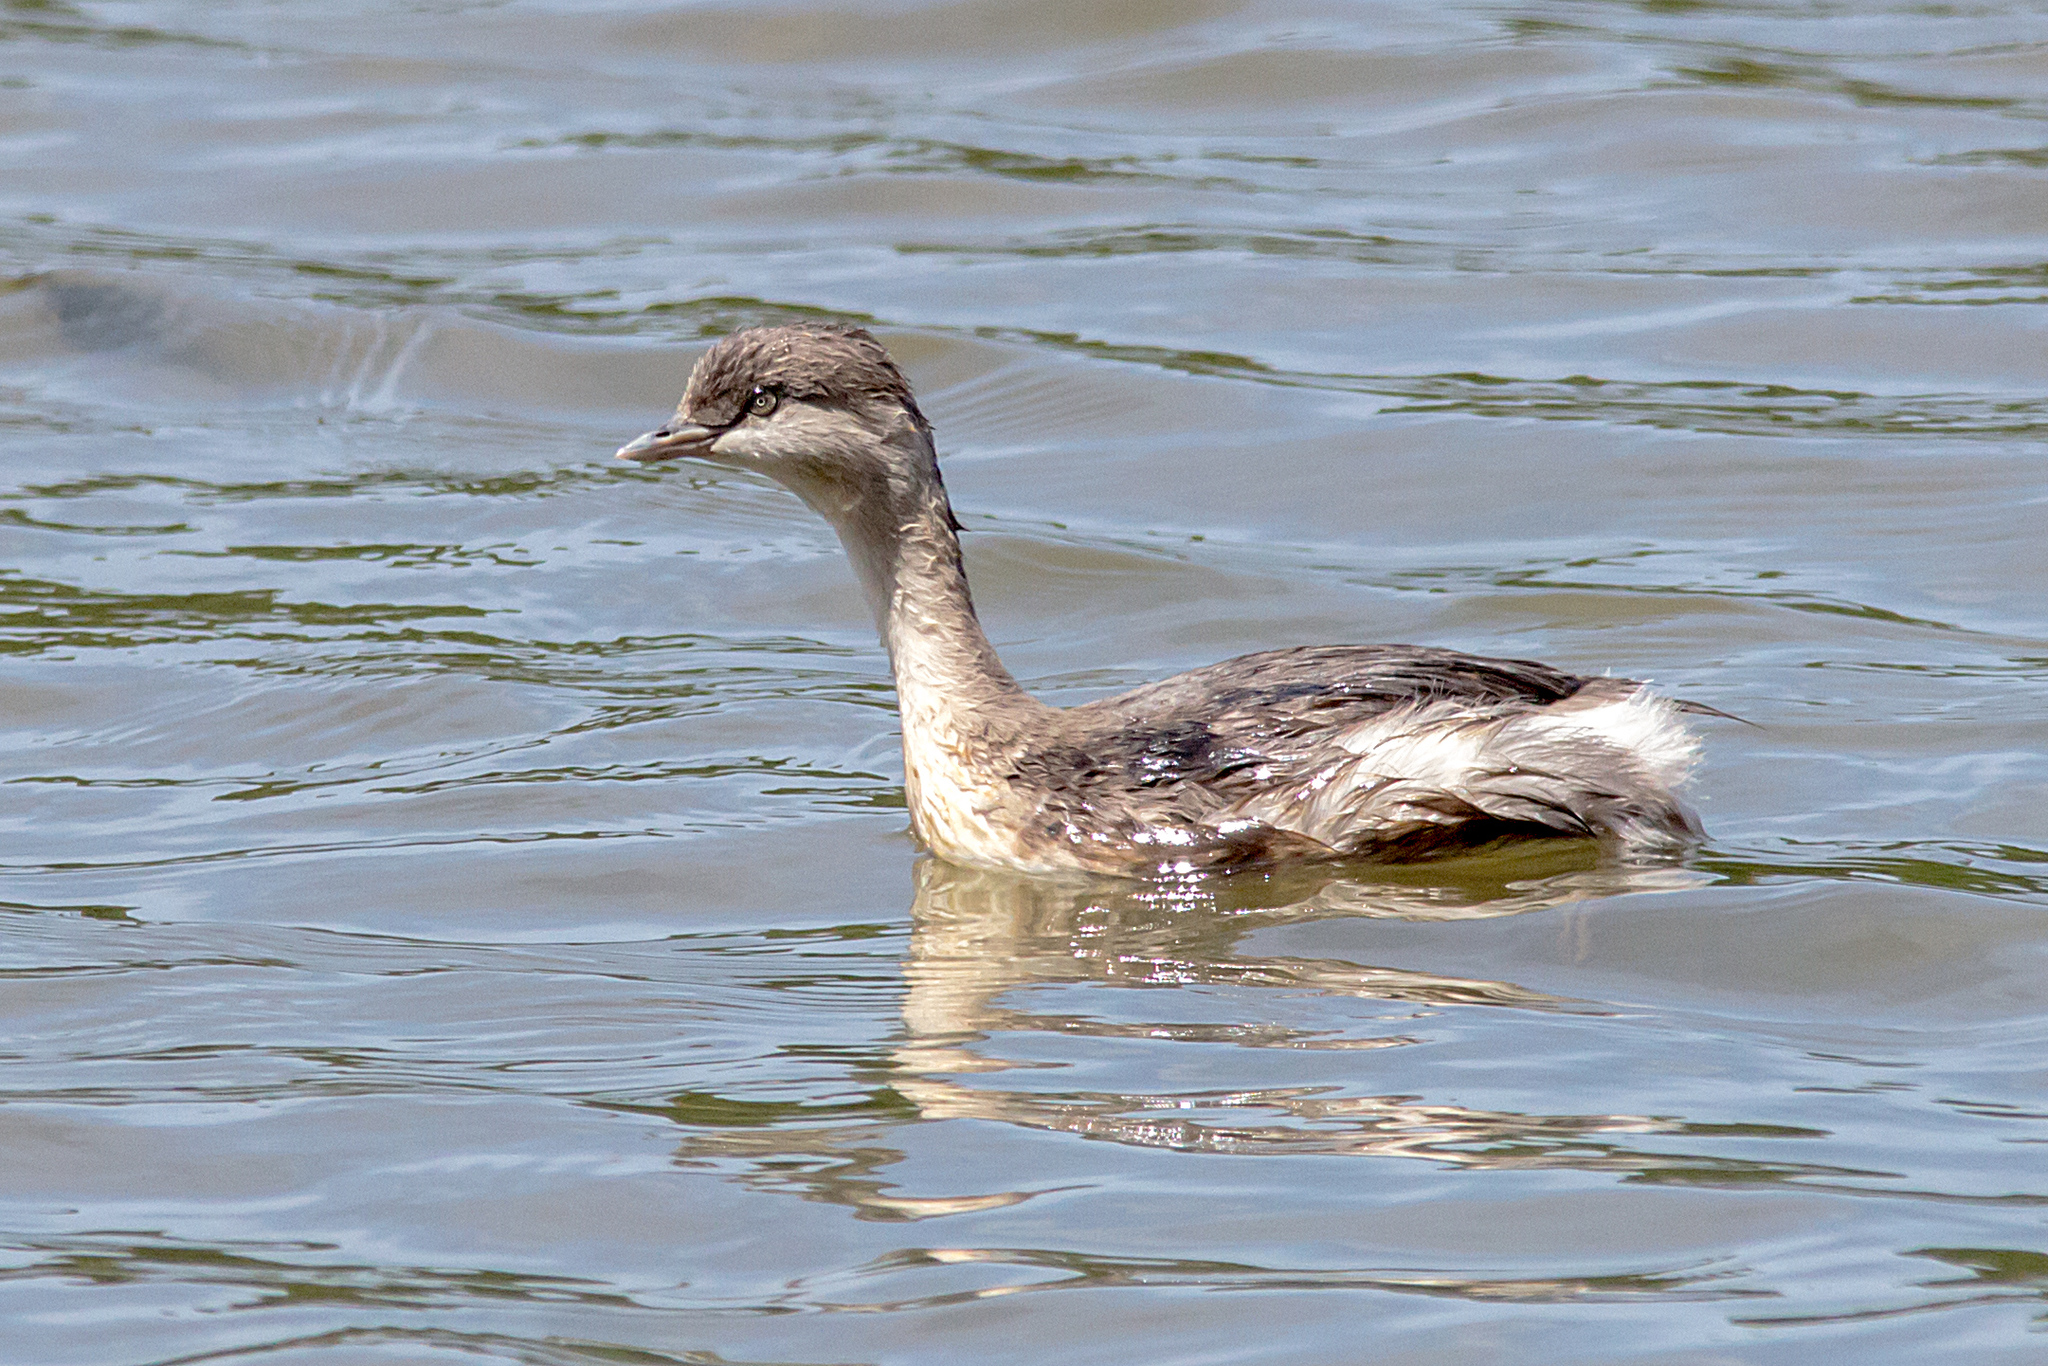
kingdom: Animalia
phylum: Chordata
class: Aves
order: Podicipediformes
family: Podicipedidae
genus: Poliocephalus
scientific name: Poliocephalus poliocephalus
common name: Hoary-headed grebe
